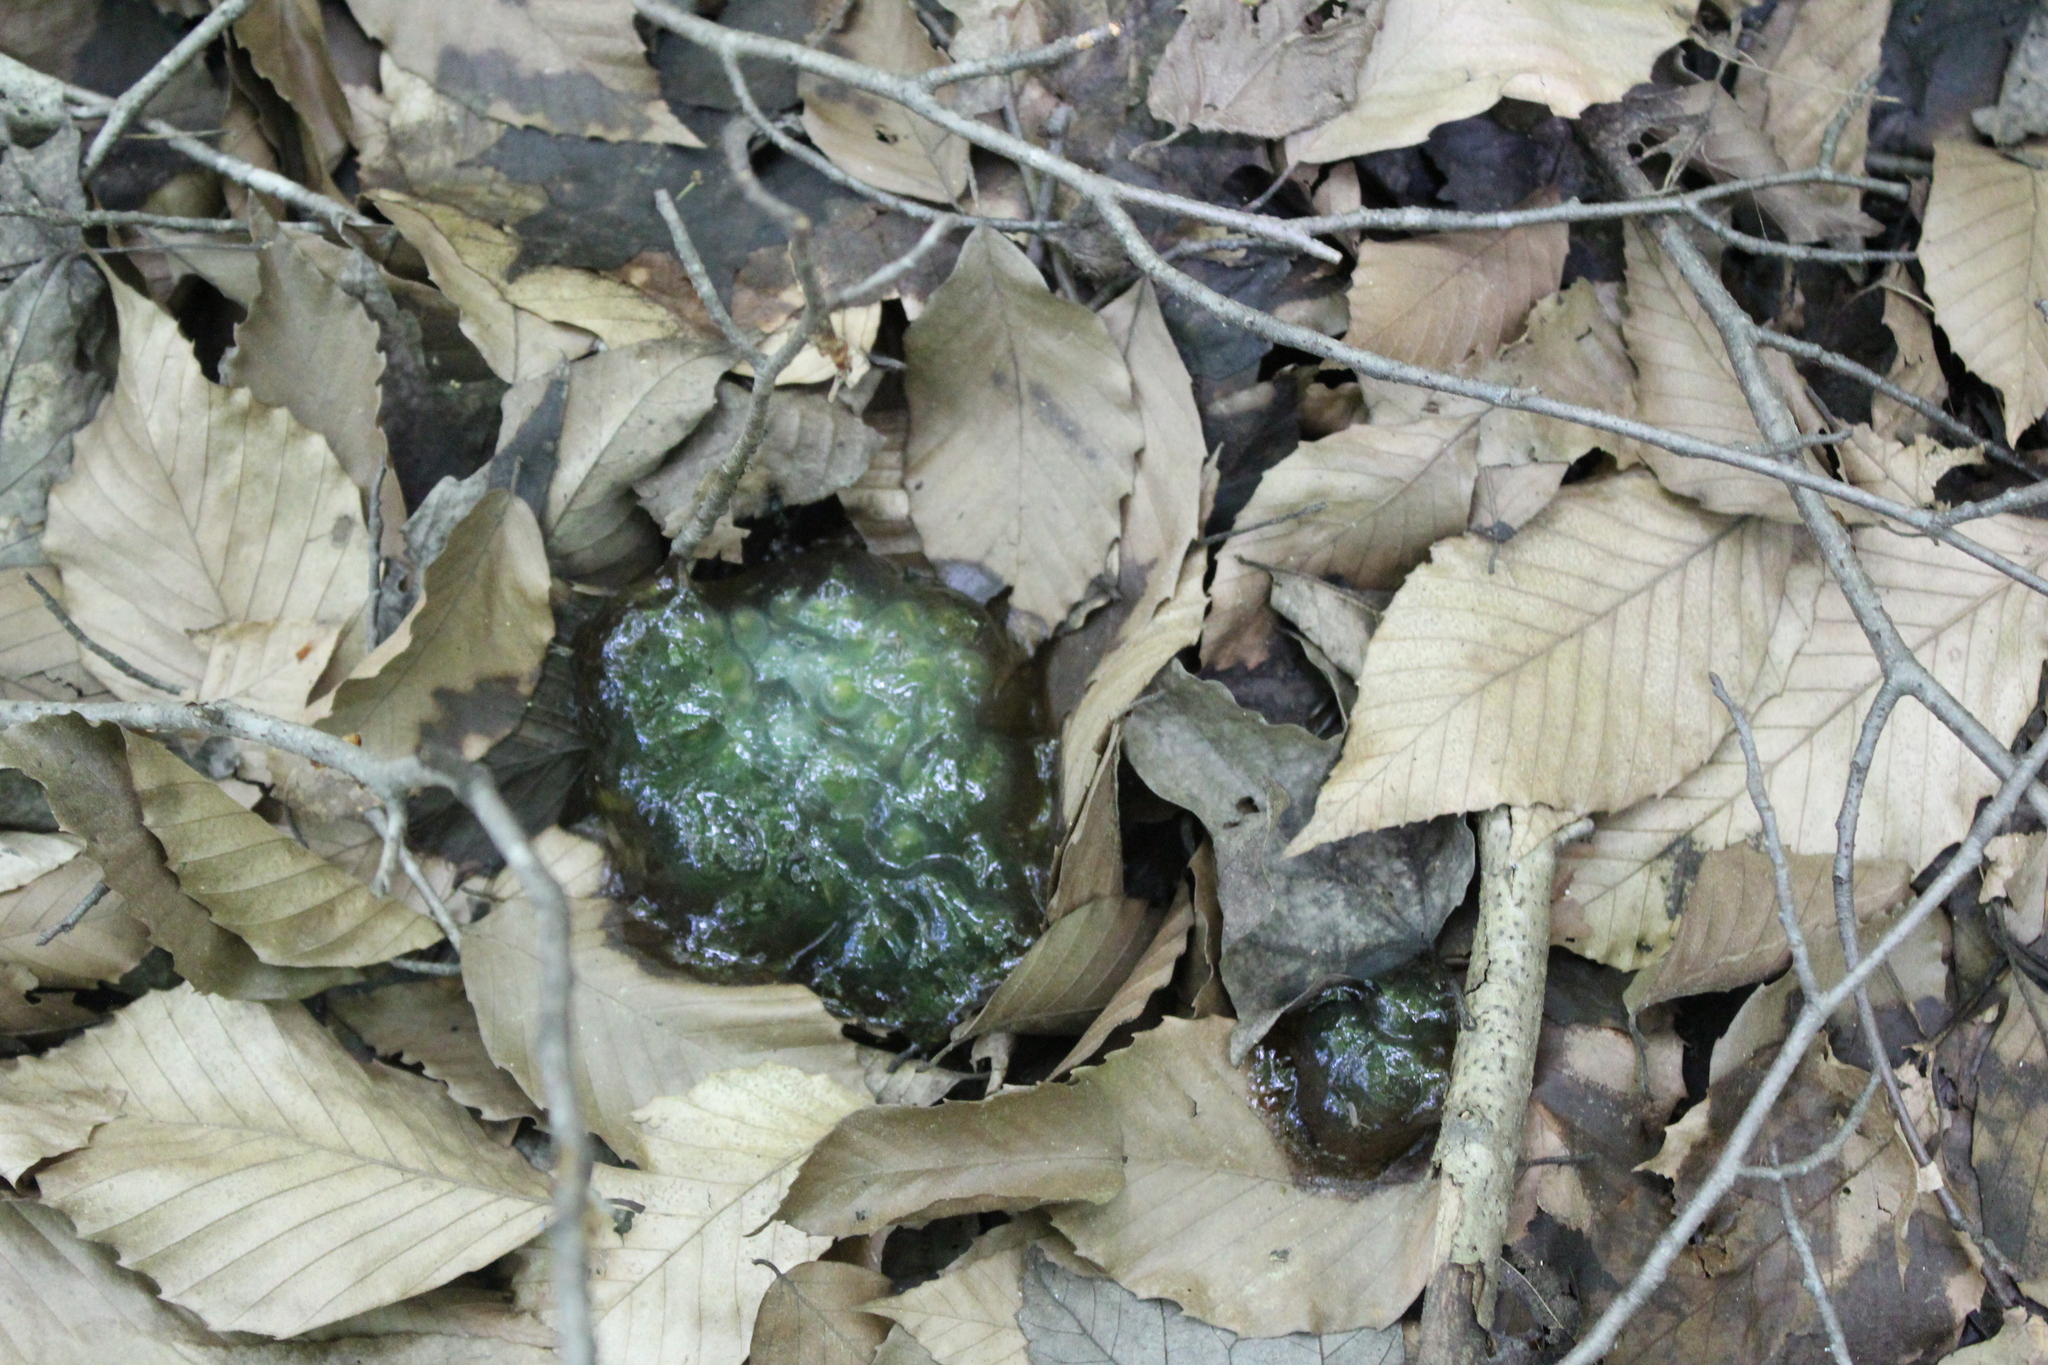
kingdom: Animalia
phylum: Chordata
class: Amphibia
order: Caudata
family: Ambystomatidae
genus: Ambystoma
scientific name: Ambystoma maculatum
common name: Spotted salamander
